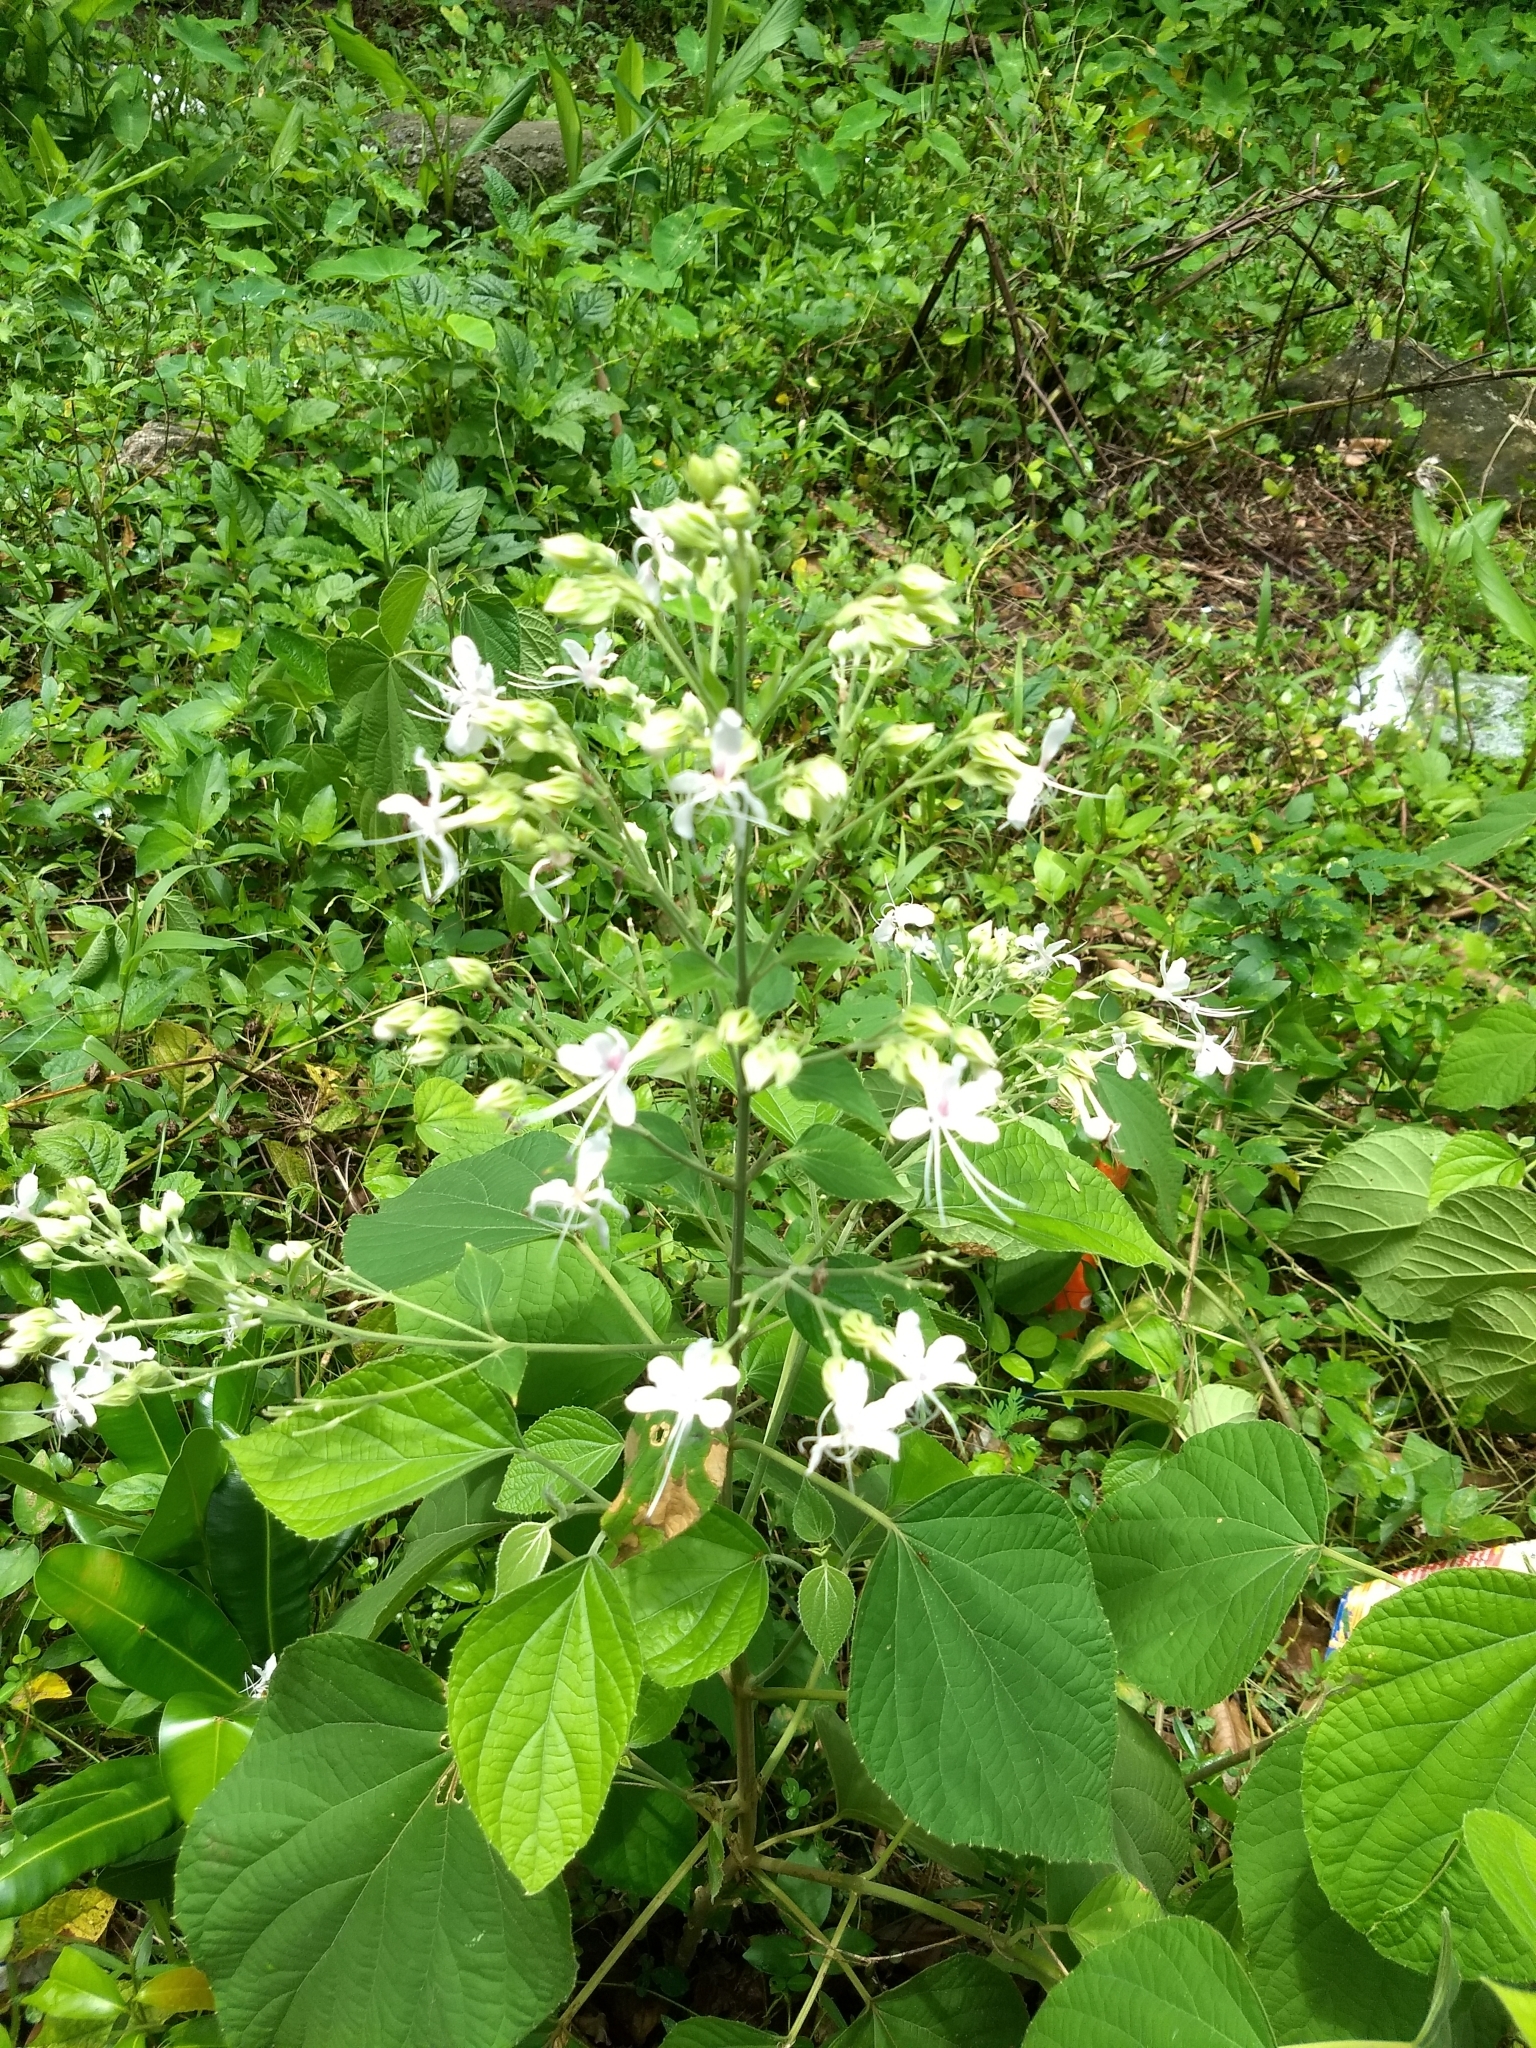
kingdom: Plantae
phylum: Tracheophyta
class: Magnoliopsida
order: Lamiales
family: Lamiaceae
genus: Clerodendrum
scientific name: Clerodendrum infortunatum
